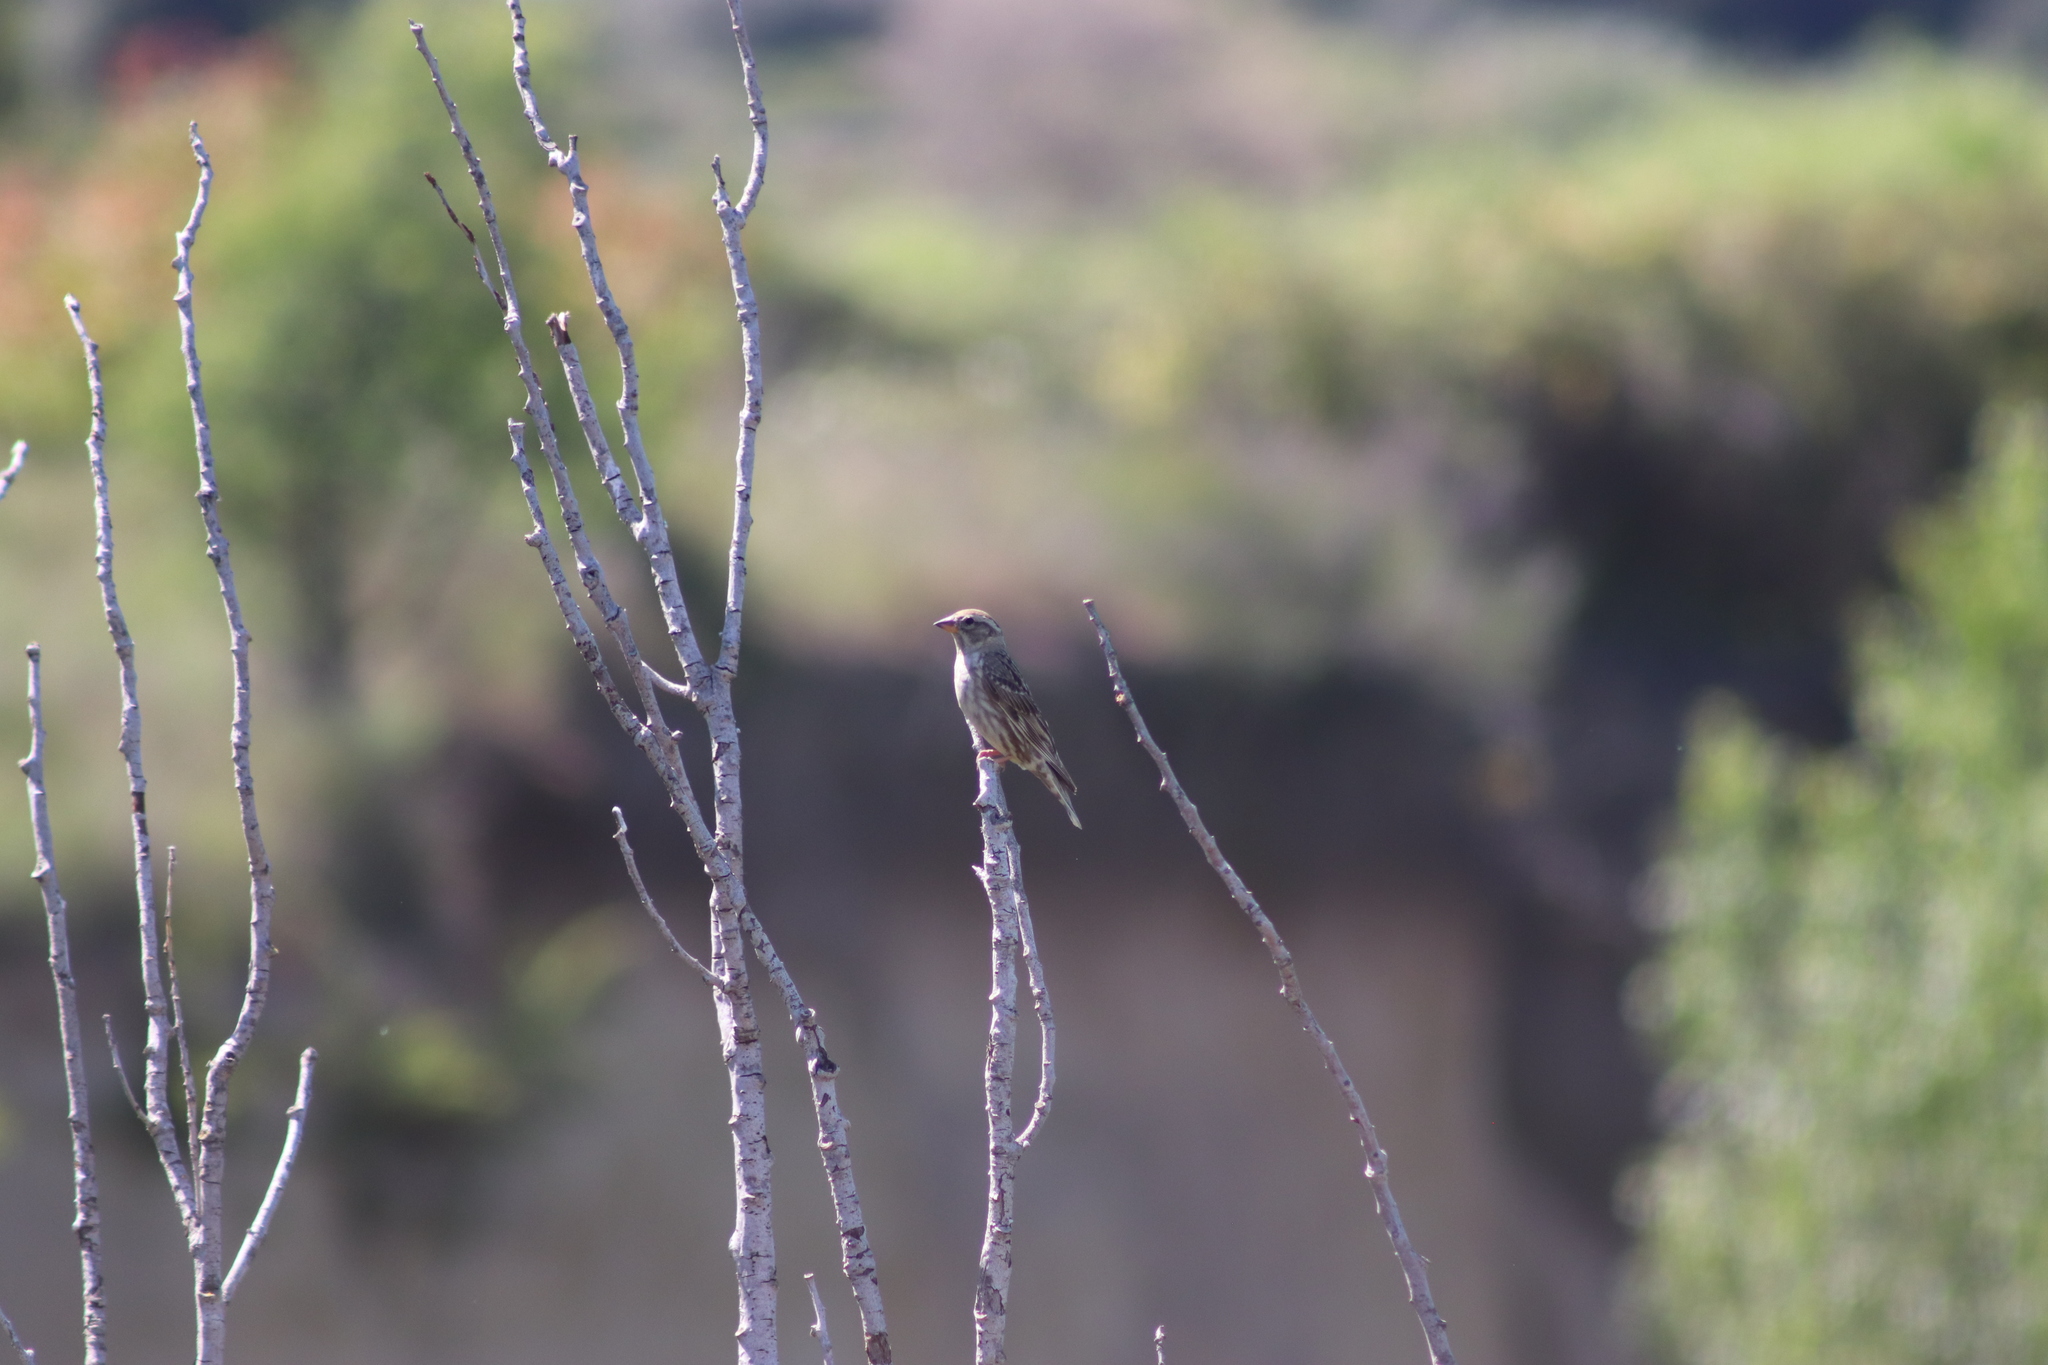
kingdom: Animalia
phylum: Chordata
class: Aves
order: Passeriformes
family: Passeridae
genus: Petronia
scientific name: Petronia petronia
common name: Rock sparrow
